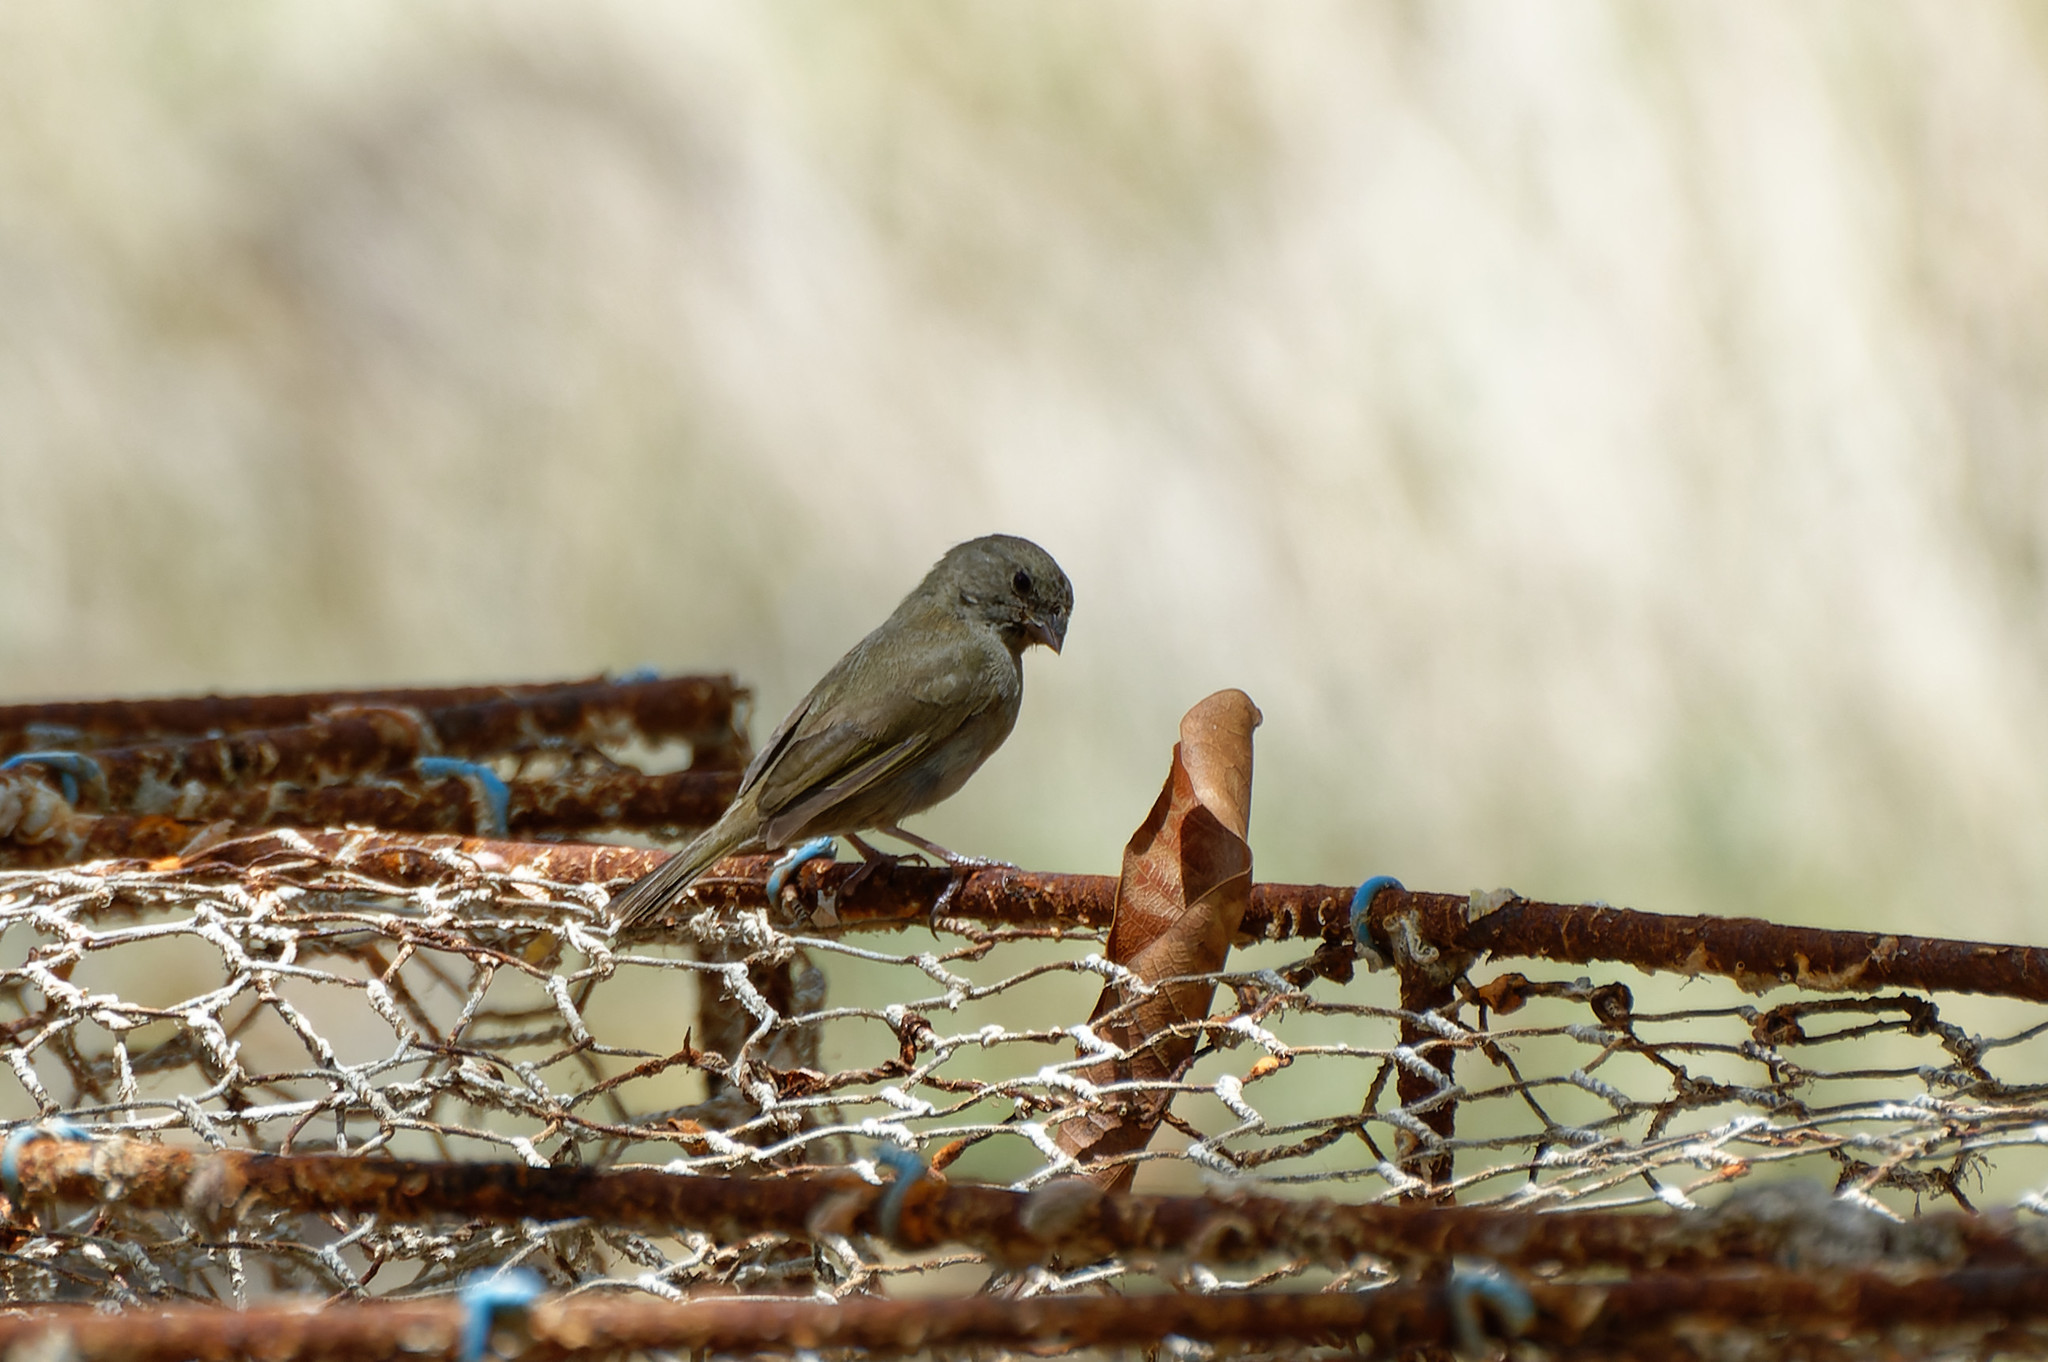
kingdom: Animalia
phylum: Chordata
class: Aves
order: Passeriformes
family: Thraupidae
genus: Melanospiza
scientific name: Melanospiza bicolor
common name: Black-faced grassquit
